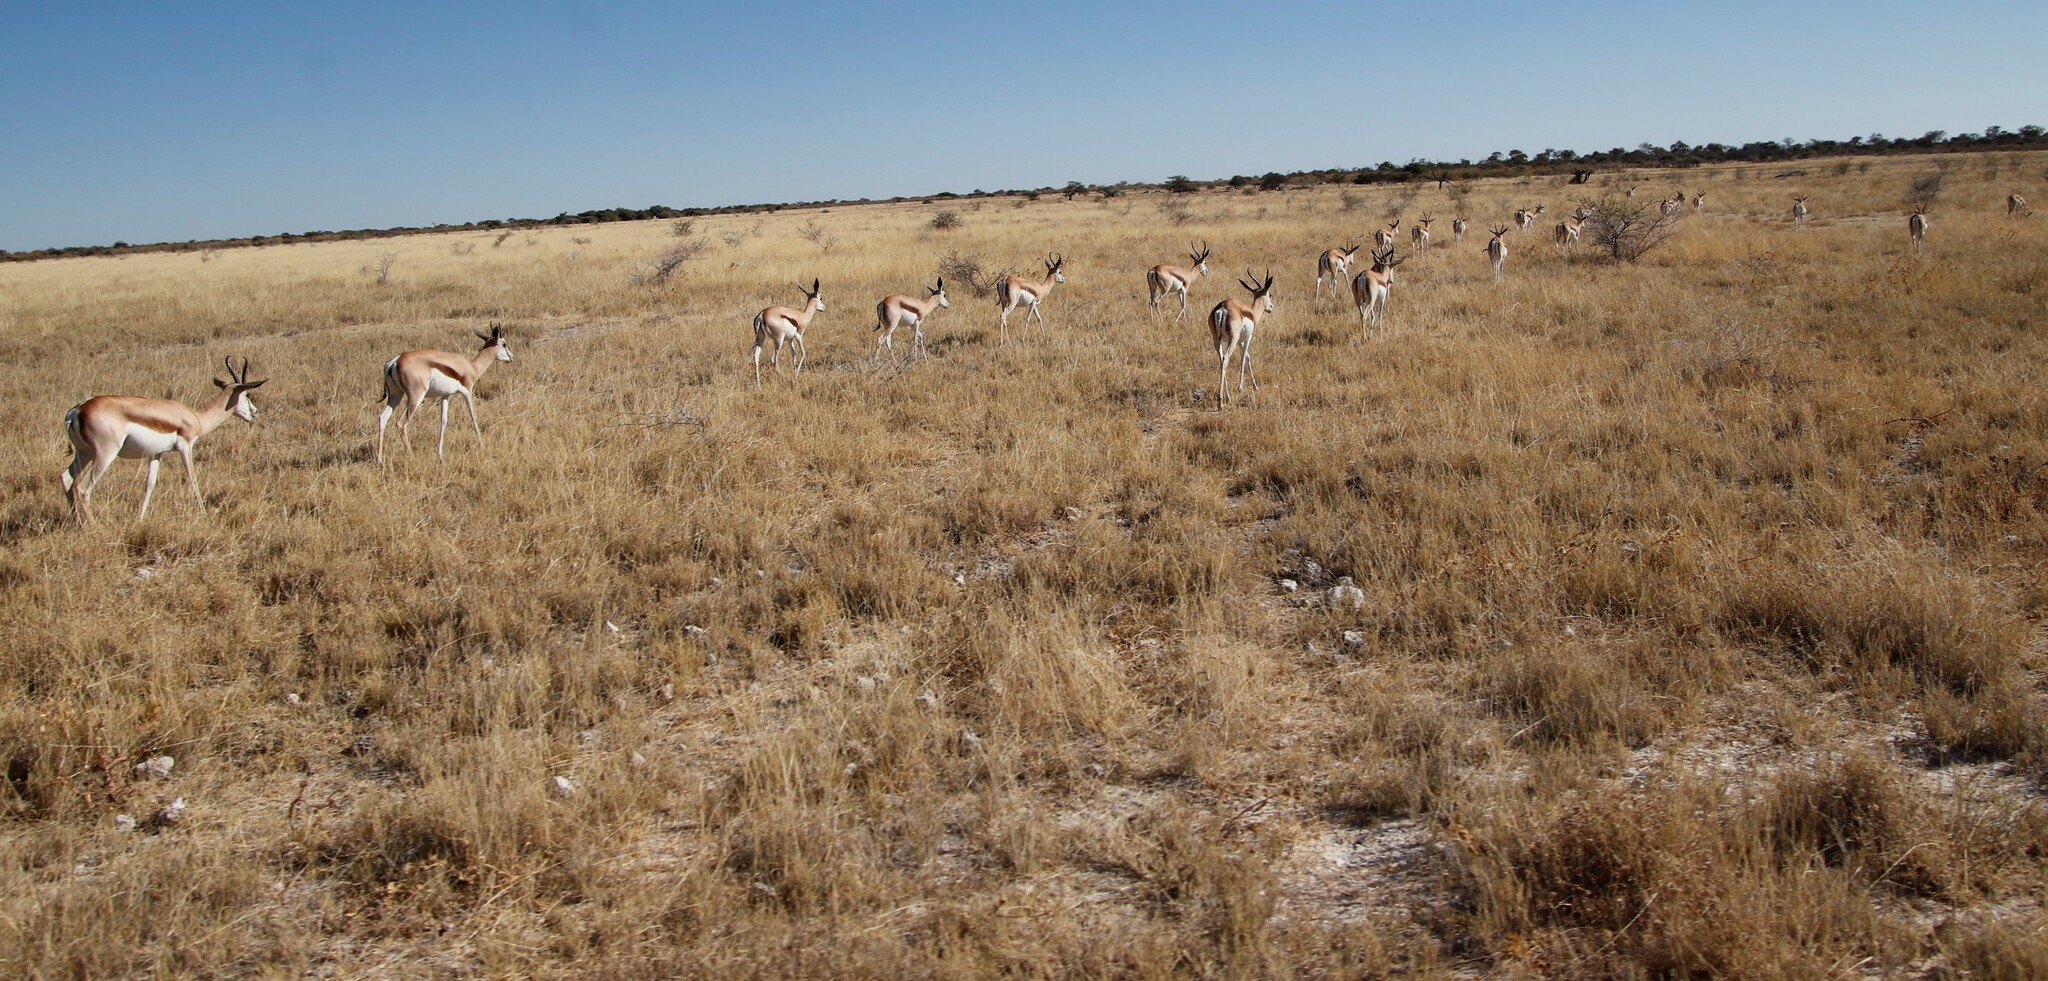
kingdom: Animalia
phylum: Chordata
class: Mammalia
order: Artiodactyla
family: Bovidae
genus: Antidorcas
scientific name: Antidorcas marsupialis
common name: Springbok
